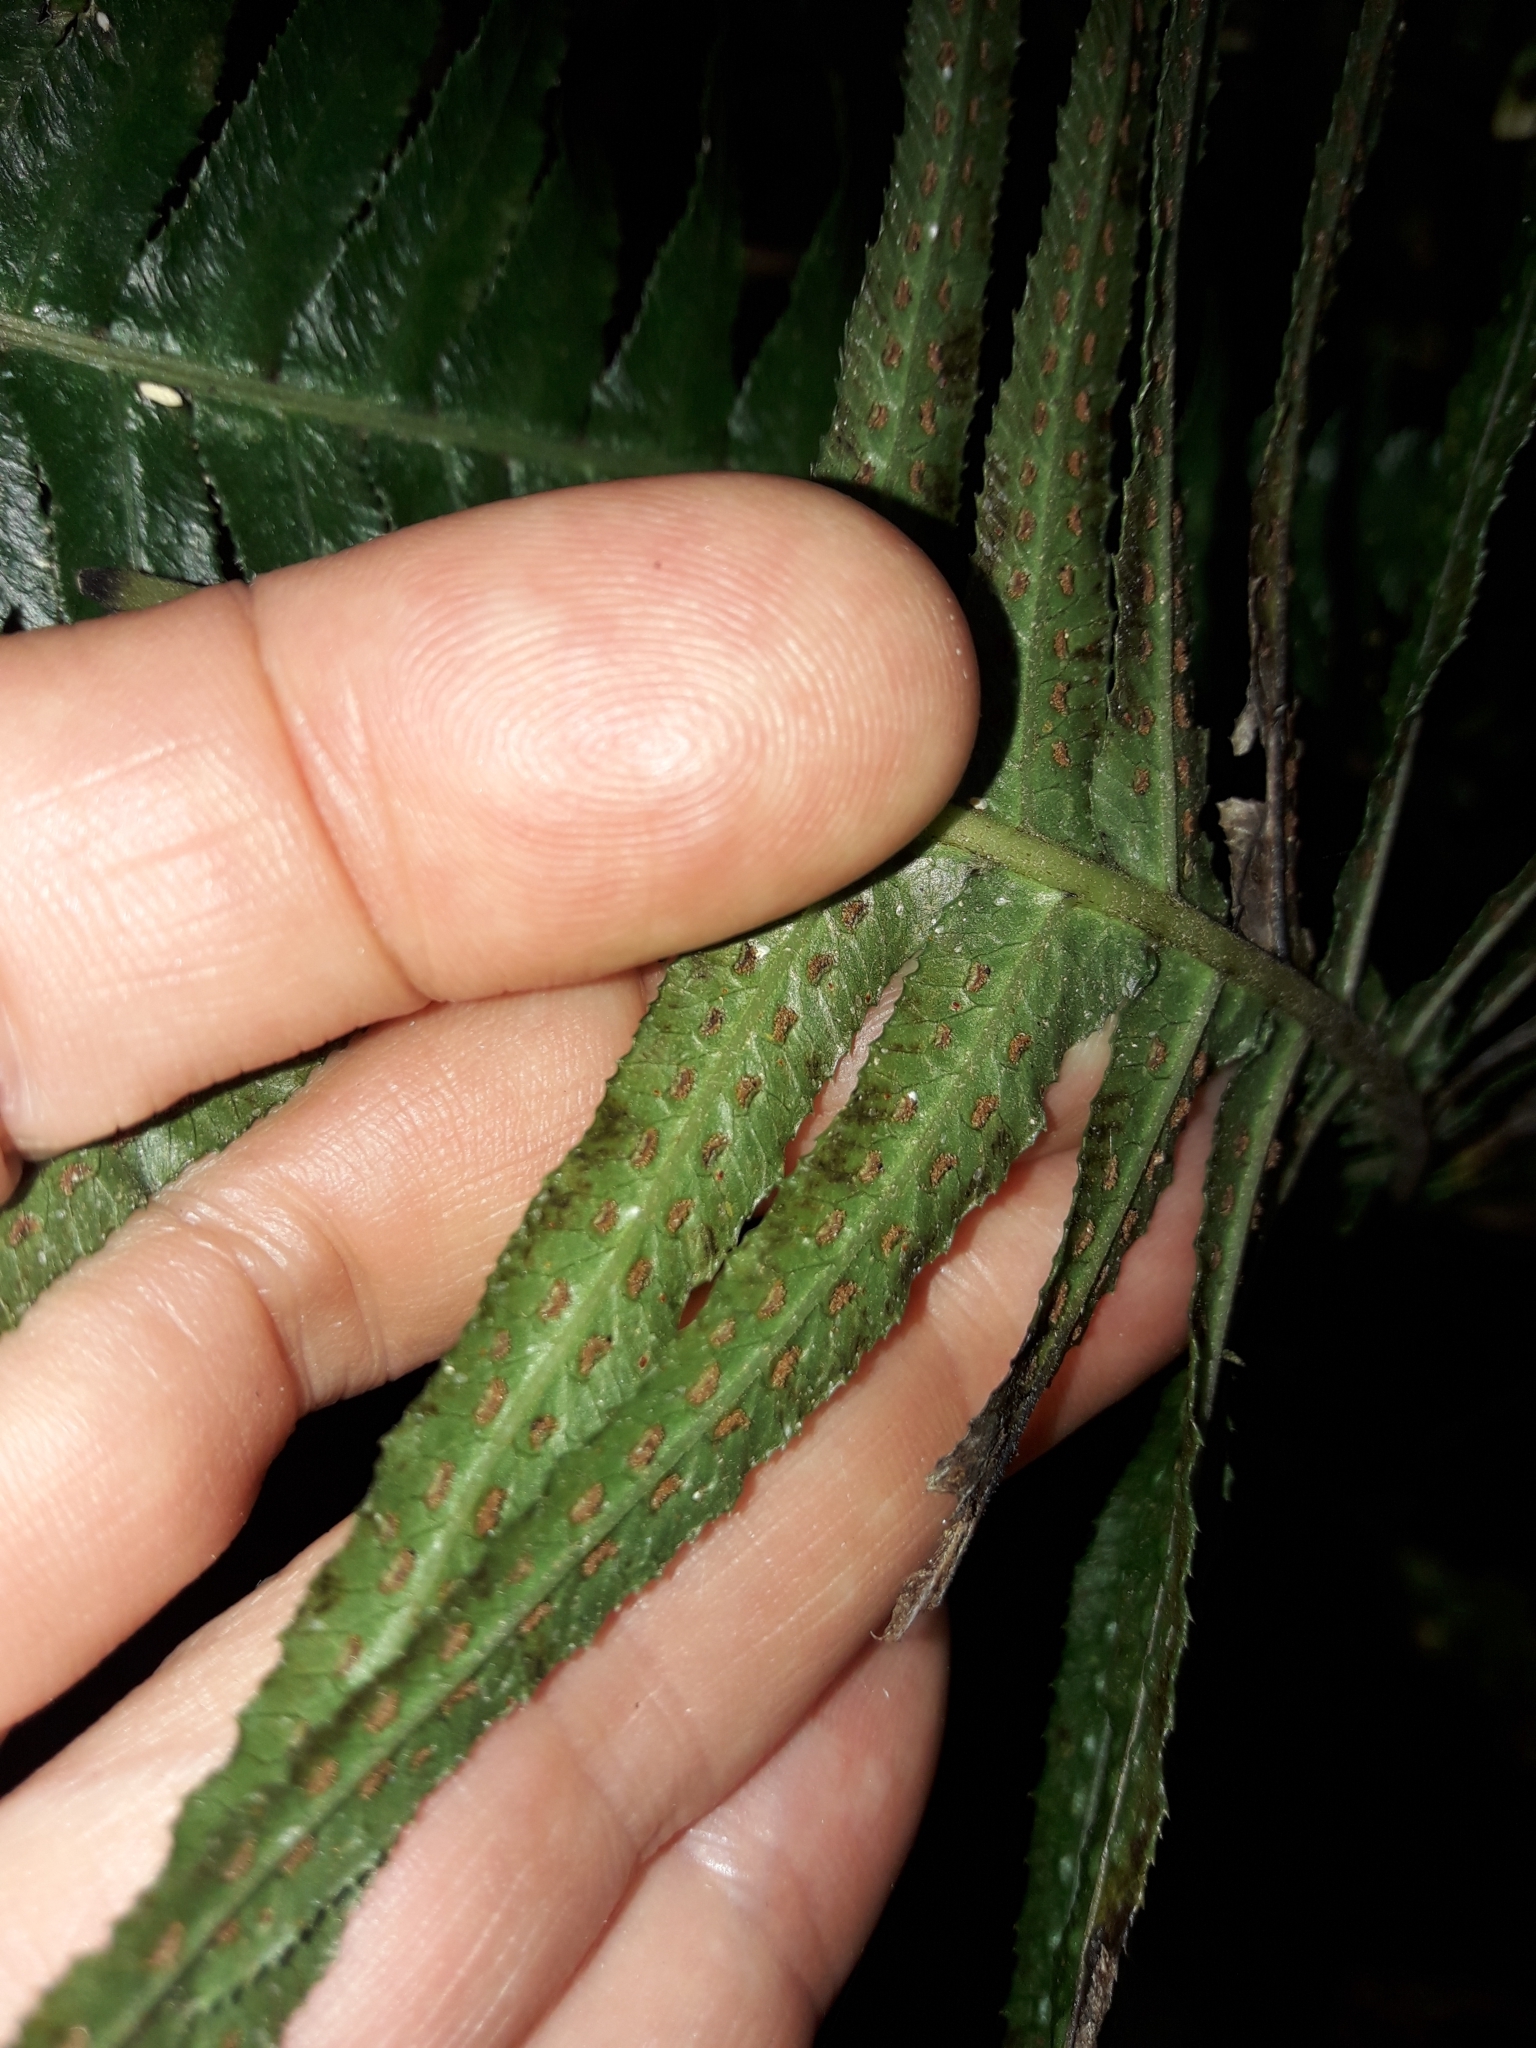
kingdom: Plantae
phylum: Tracheophyta
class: Polypodiopsida
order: Polypodiales
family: Blechnaceae
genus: Doodia
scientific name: Doodia australis
